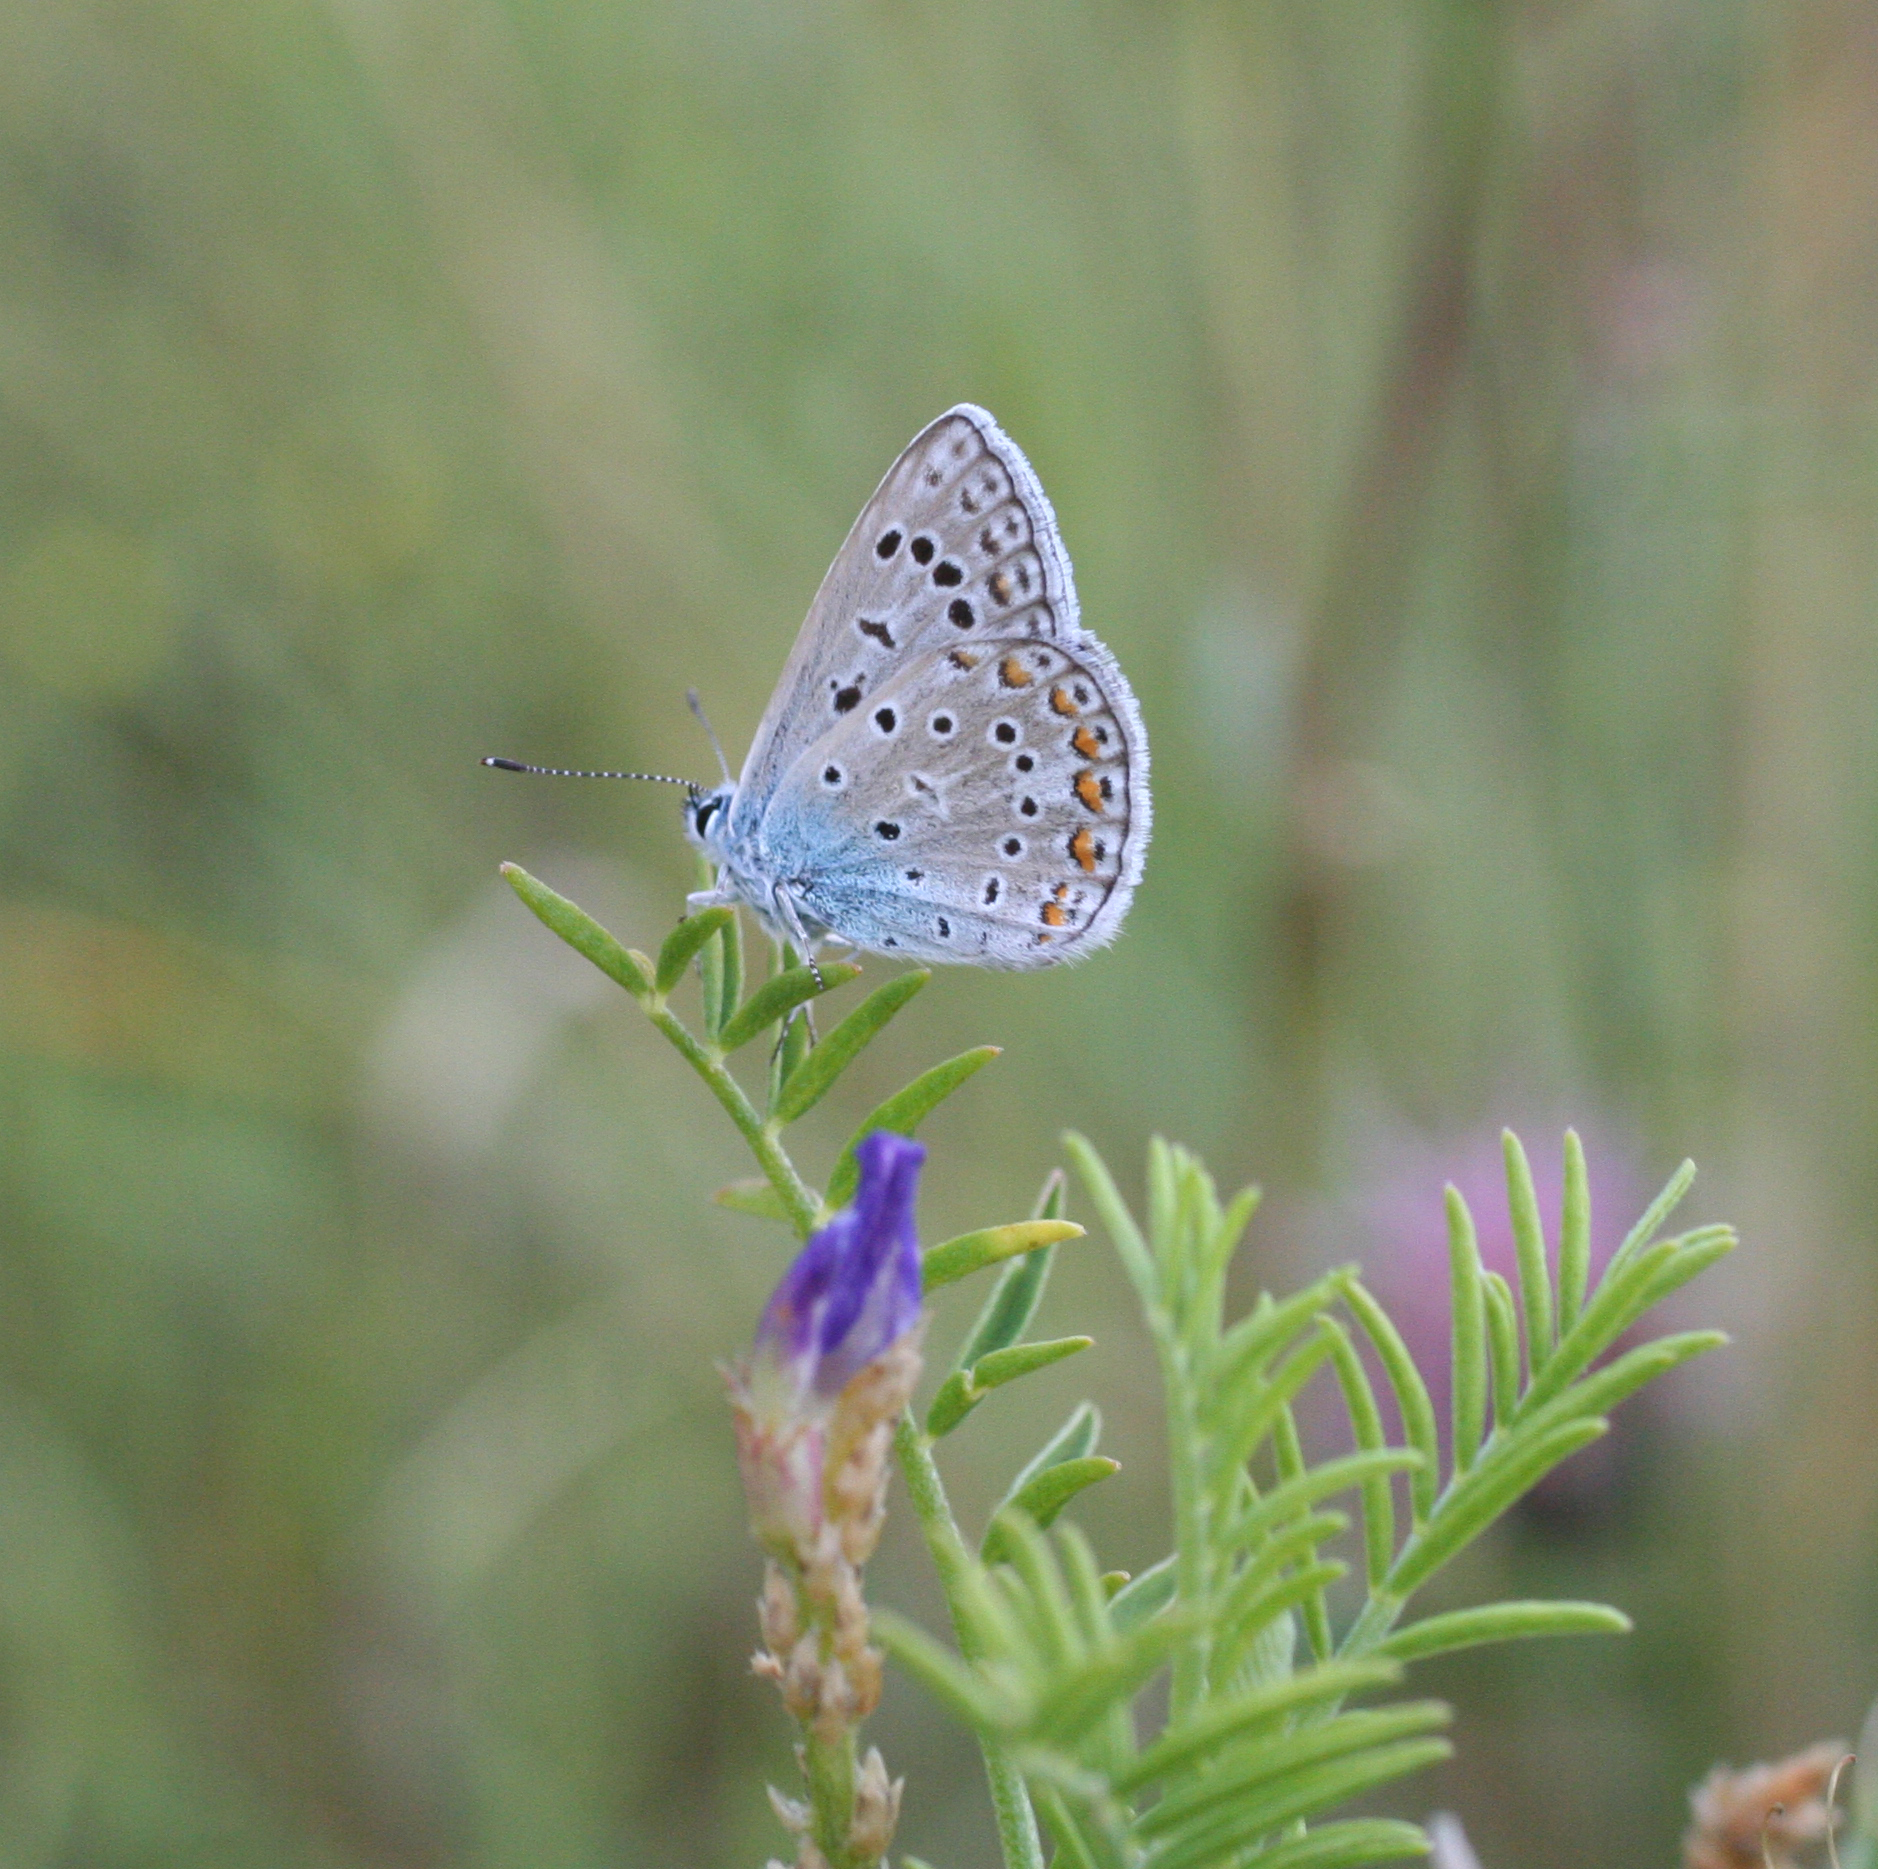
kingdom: Animalia
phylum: Arthropoda
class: Insecta
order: Lepidoptera
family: Lycaenidae
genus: Polyommatus
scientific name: Polyommatus icarus
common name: Common blue
